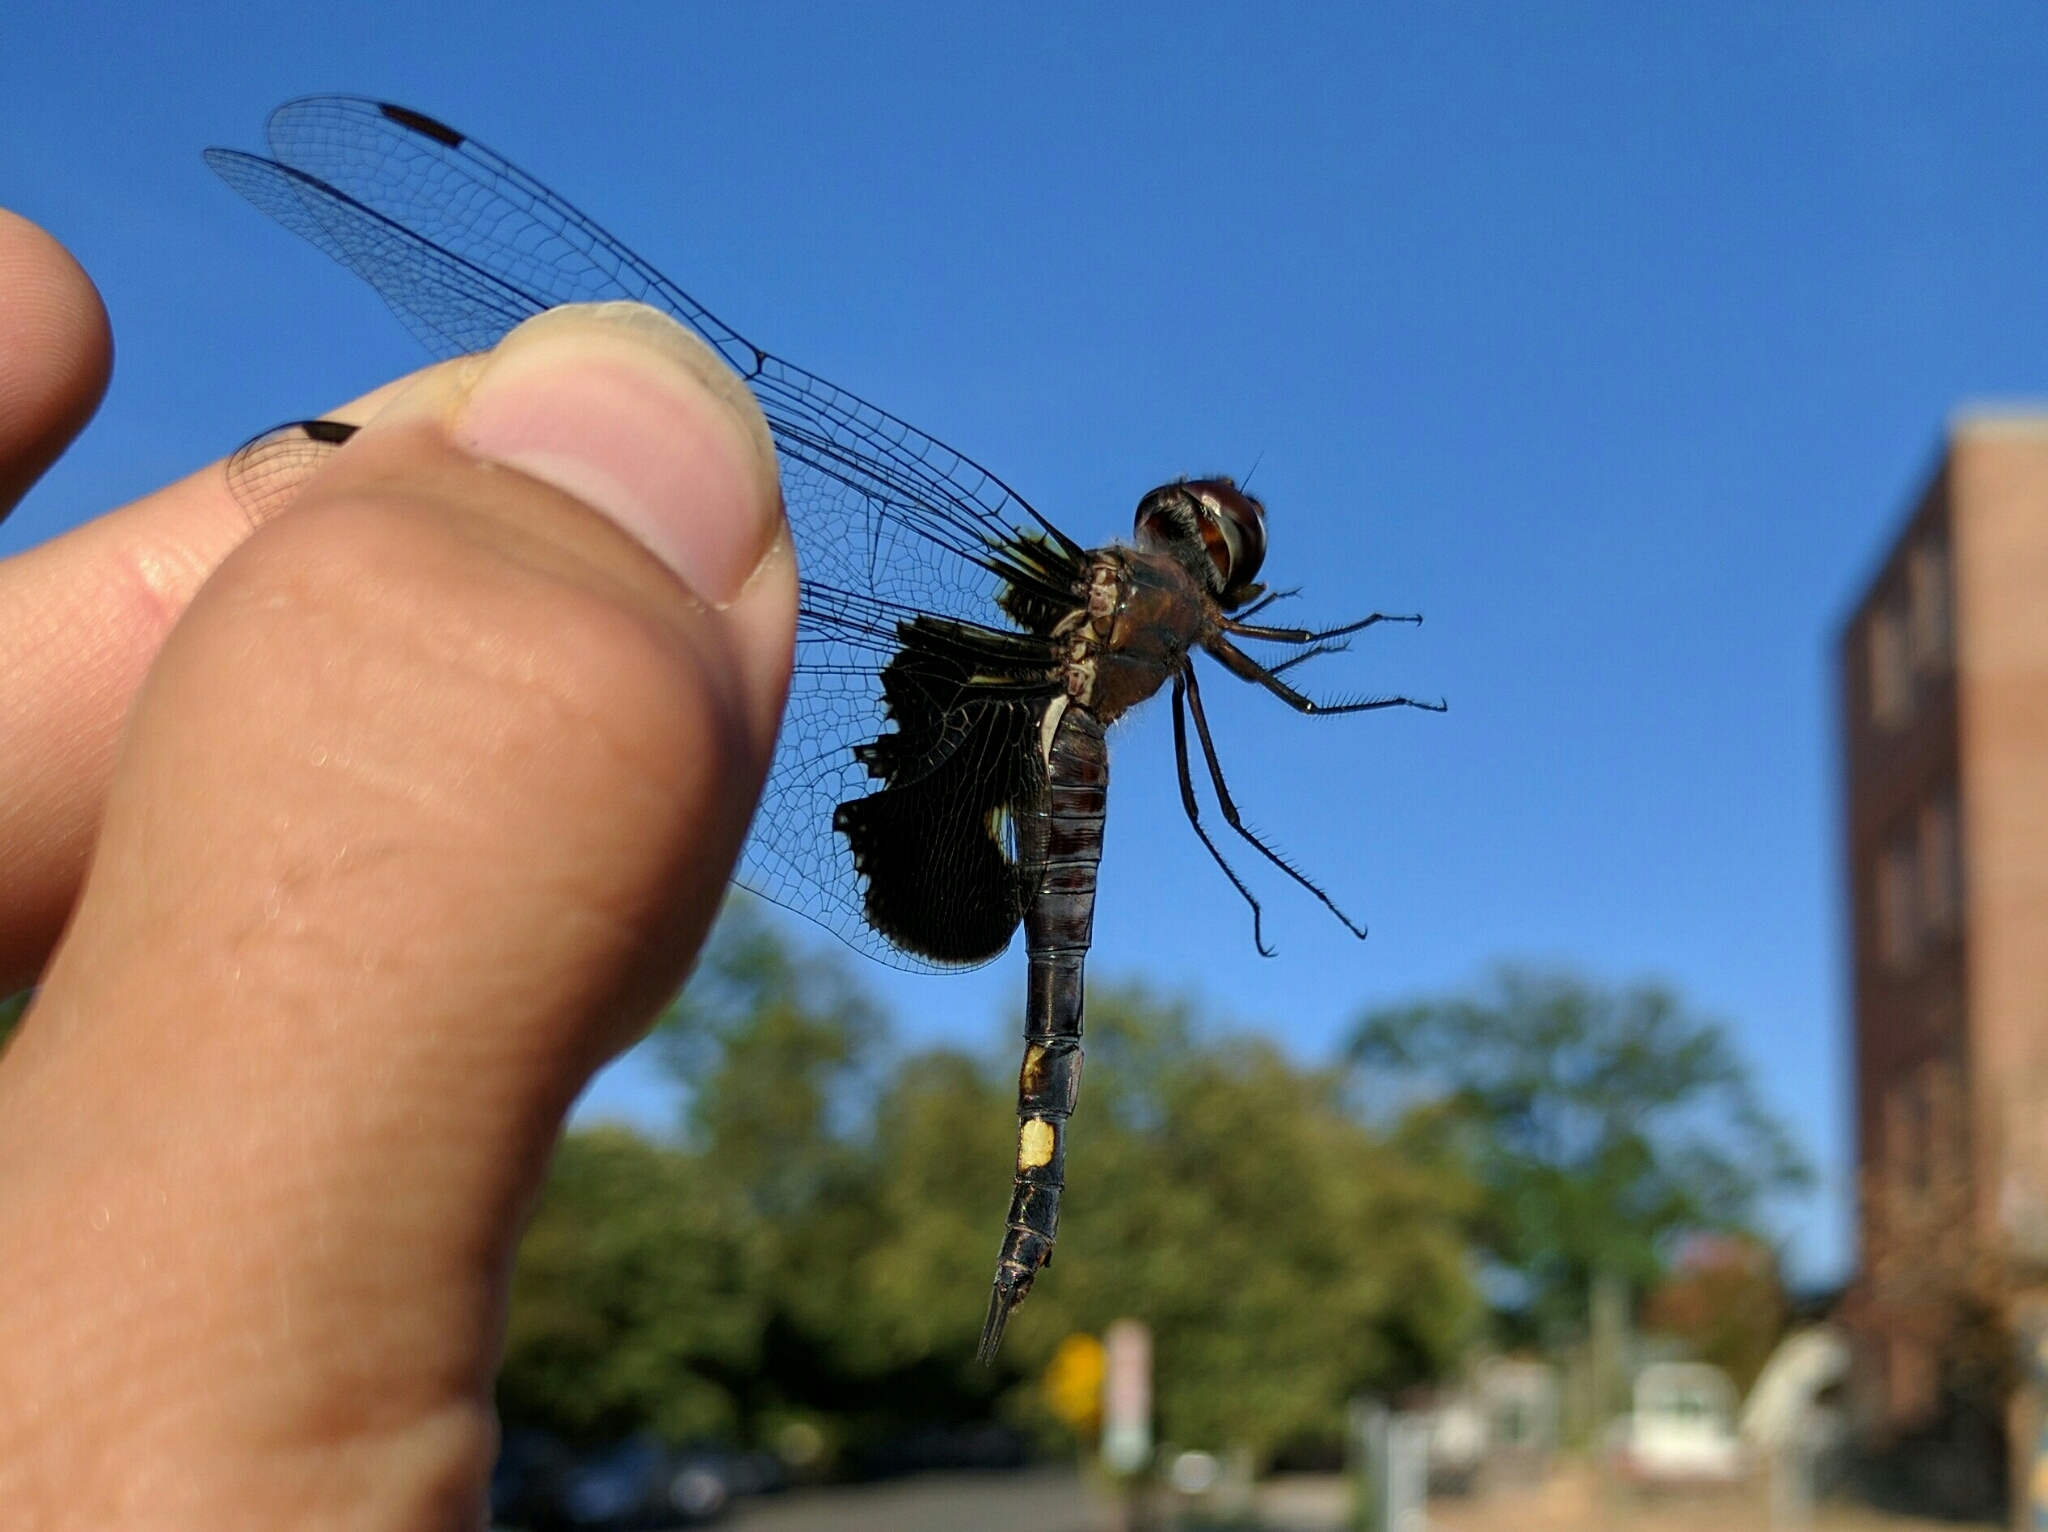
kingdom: Animalia
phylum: Arthropoda
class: Insecta
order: Odonata
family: Libellulidae
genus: Tramea
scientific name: Tramea lacerata
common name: Black saddlebags
